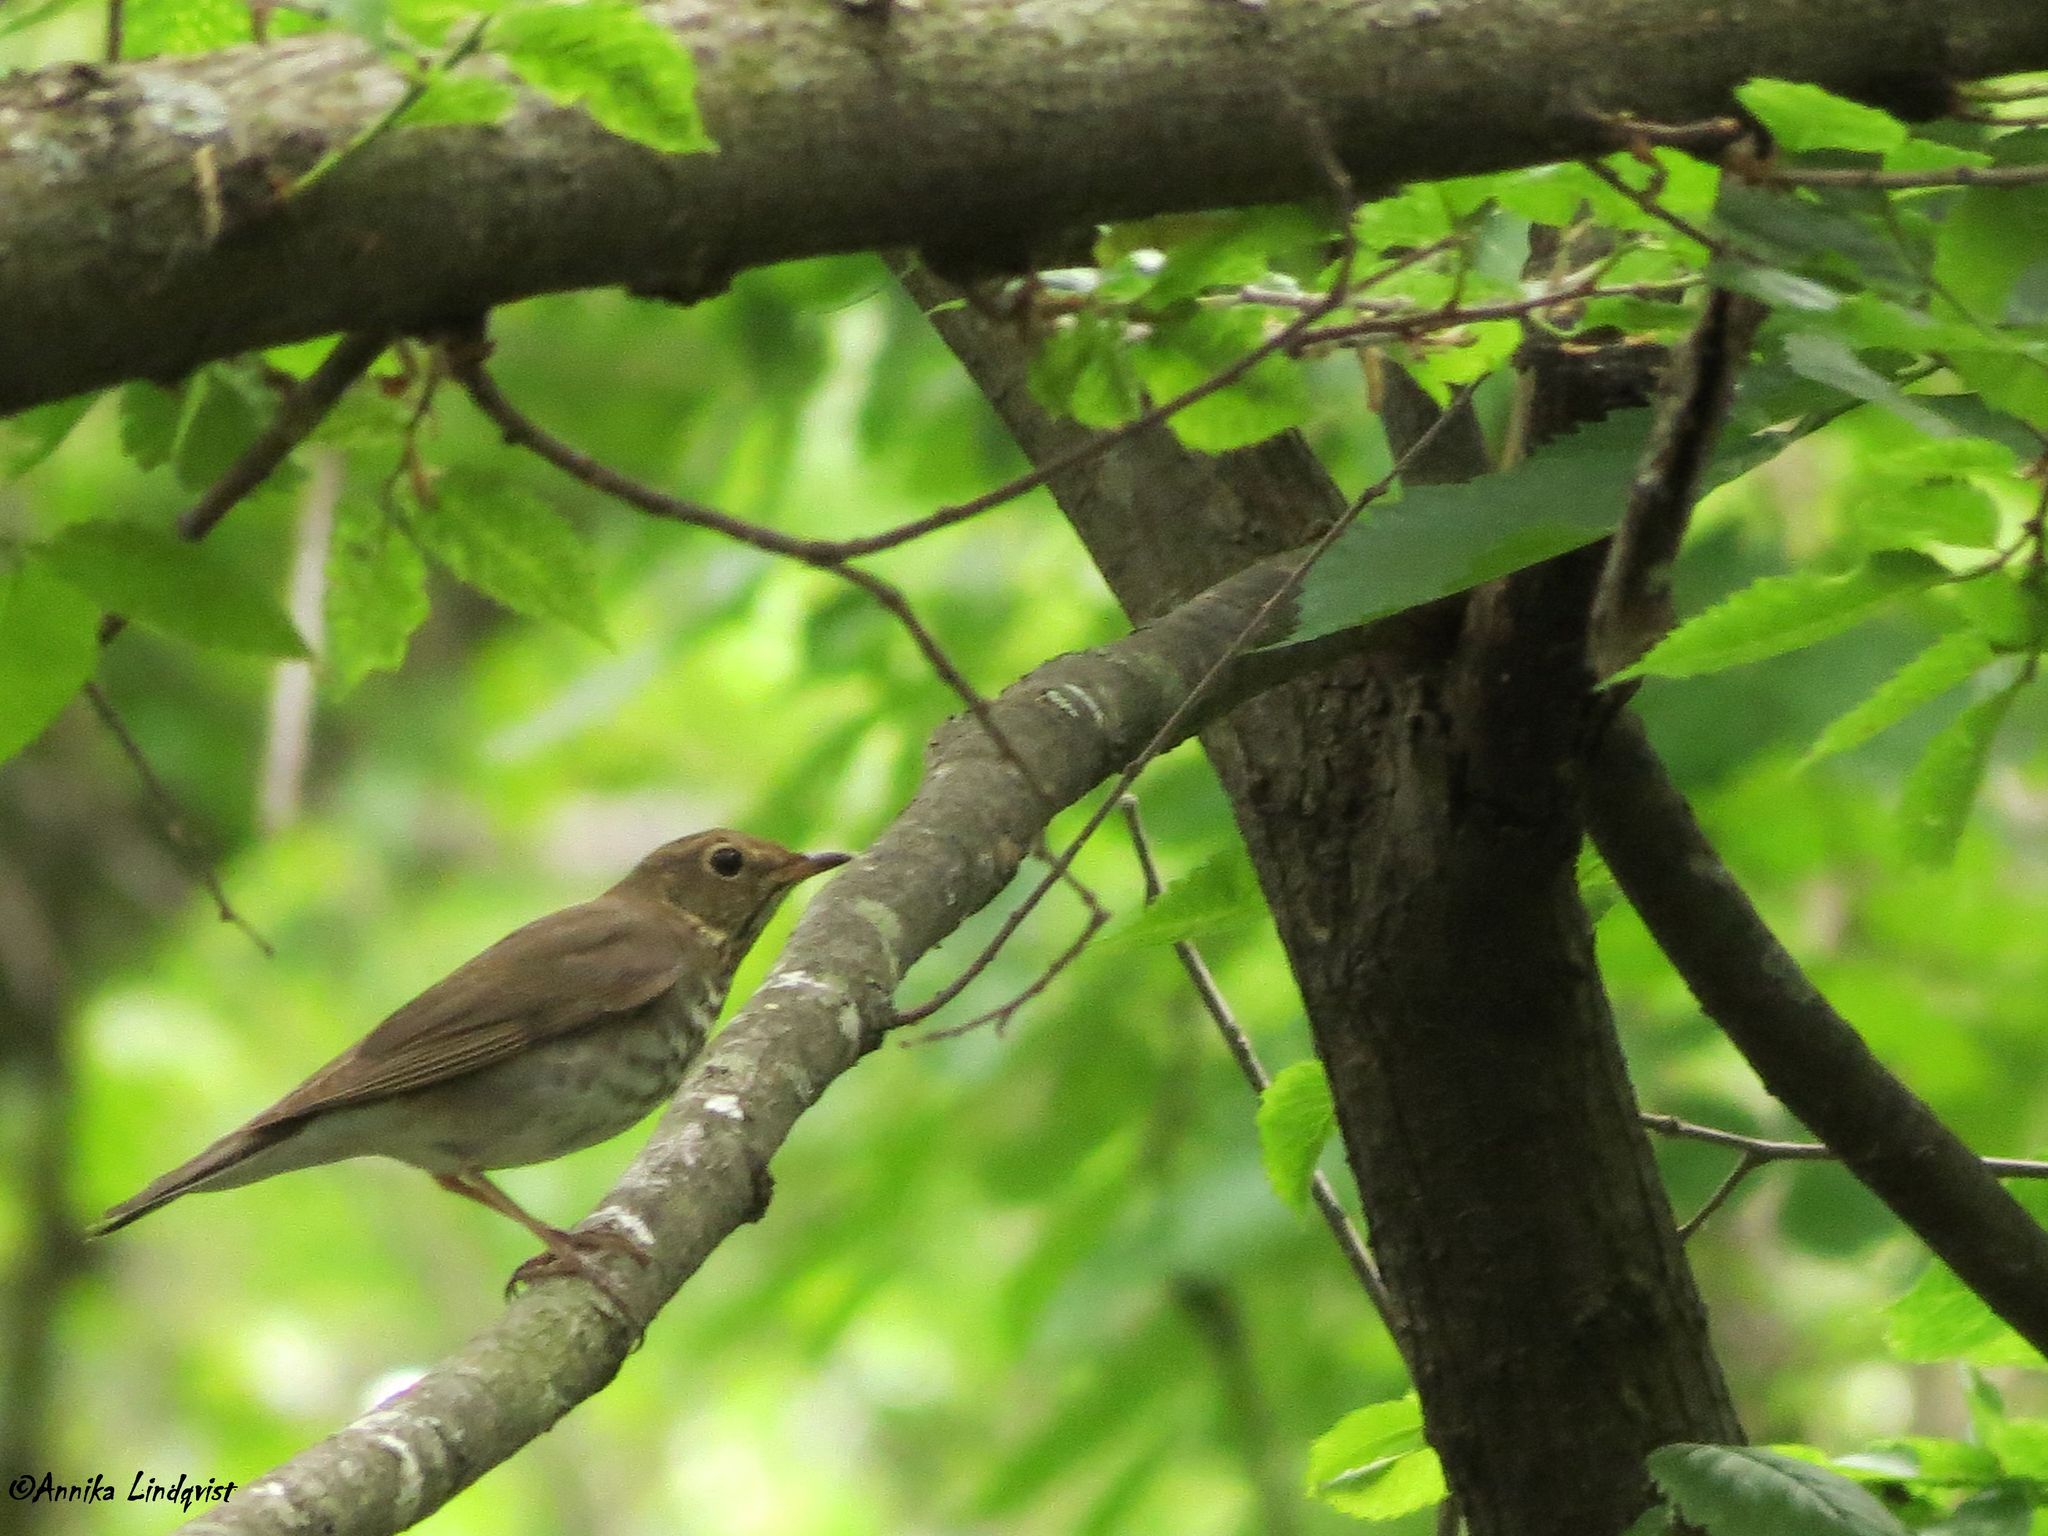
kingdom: Animalia
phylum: Chordata
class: Aves
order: Passeriformes
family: Turdidae
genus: Catharus
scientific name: Catharus ustulatus
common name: Swainson's thrush
